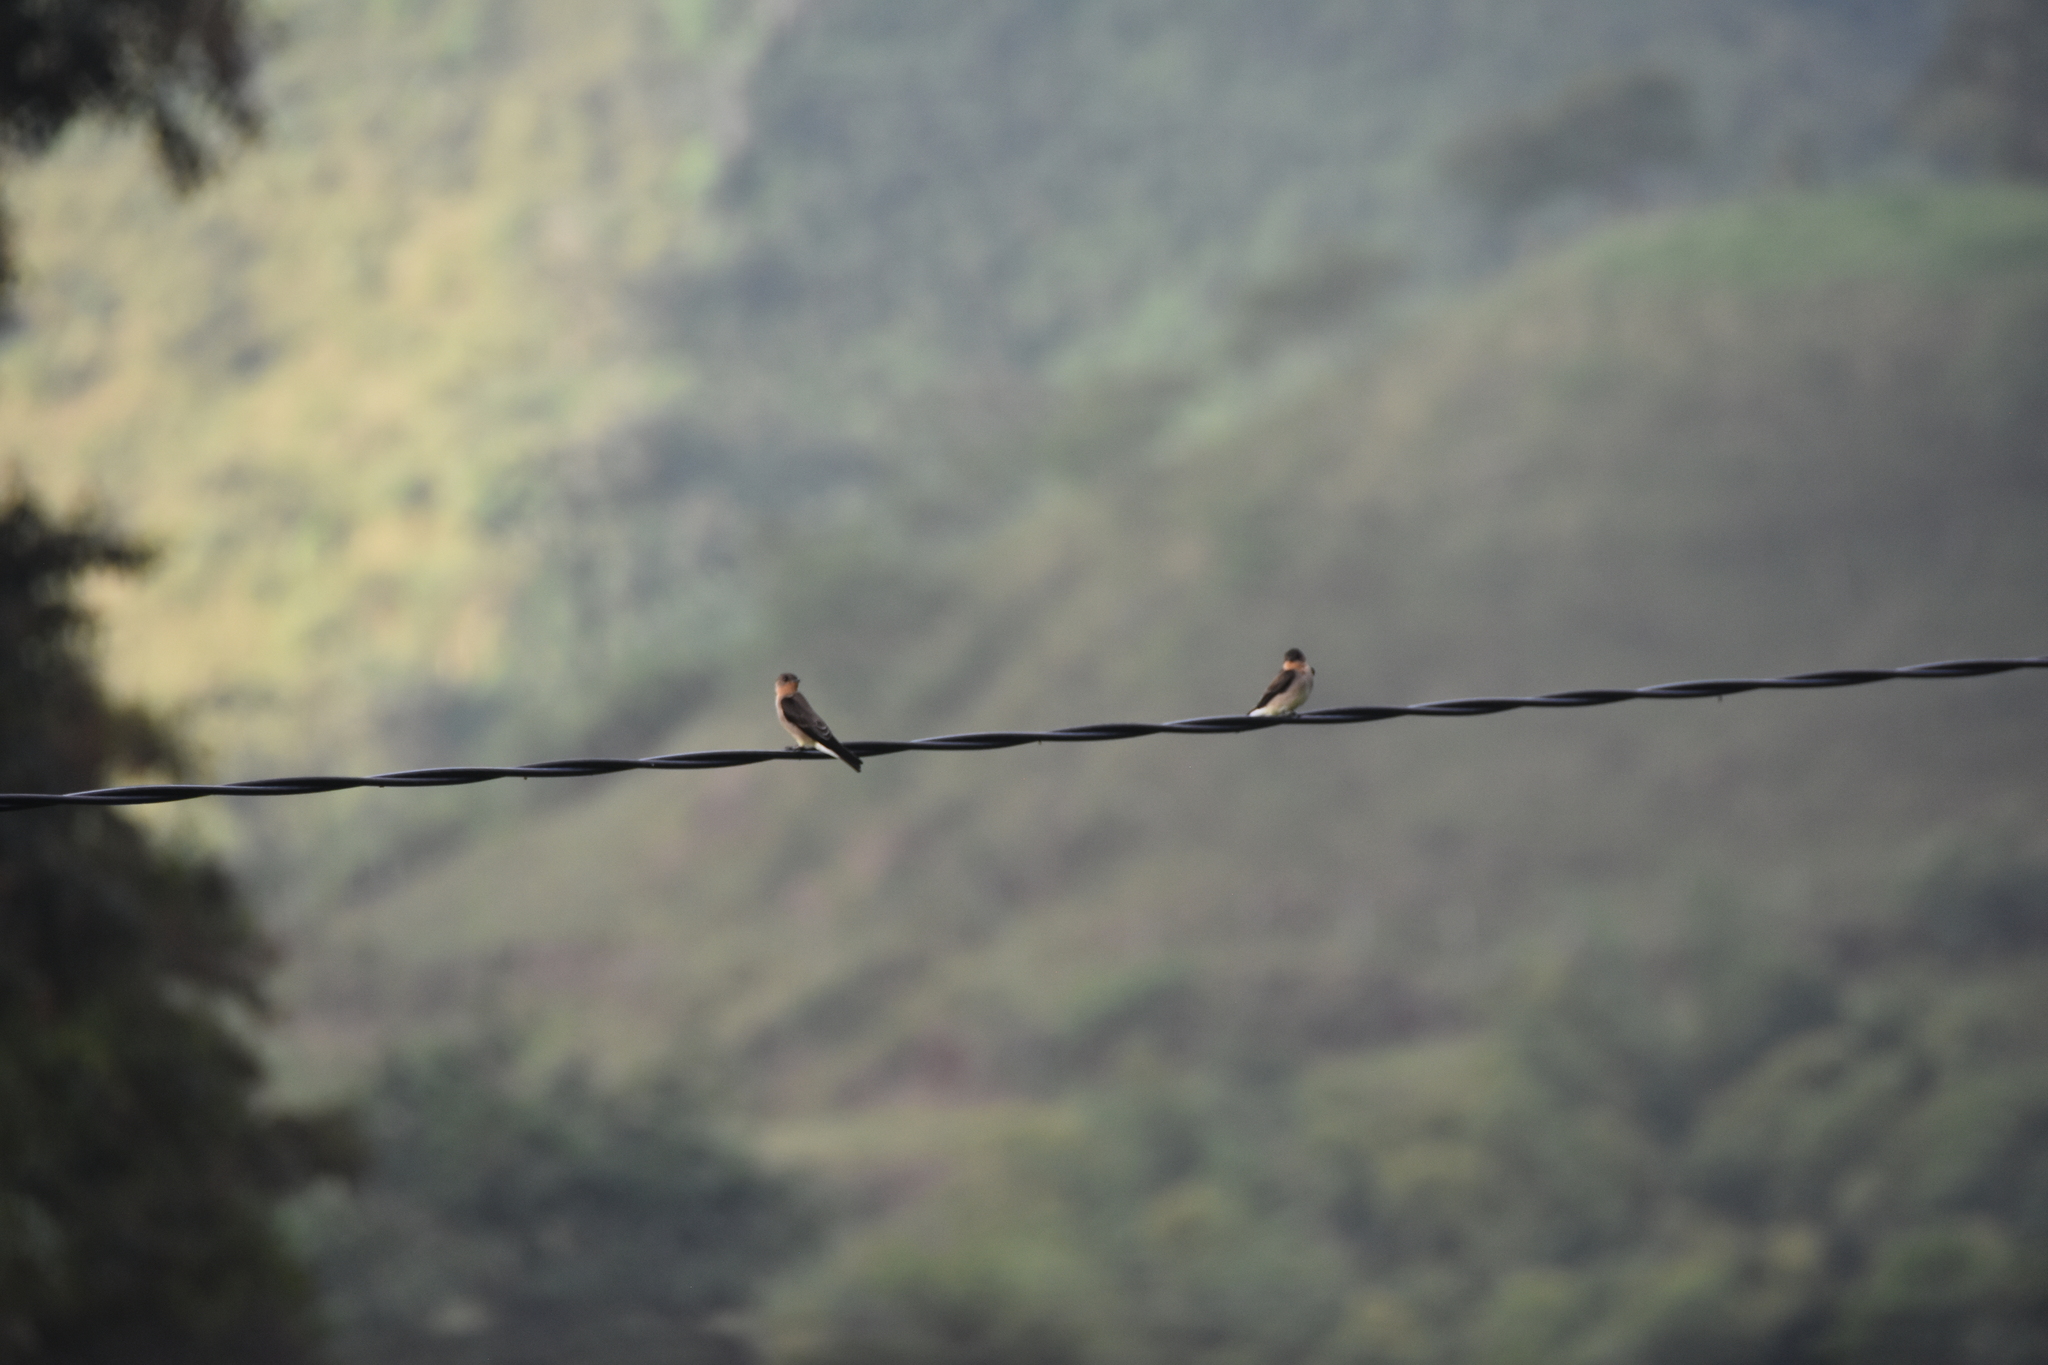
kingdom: Animalia
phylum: Chordata
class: Aves
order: Passeriformes
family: Hirundinidae
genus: Stelgidopteryx
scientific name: Stelgidopteryx ruficollis
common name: Southern rough-winged swallow
